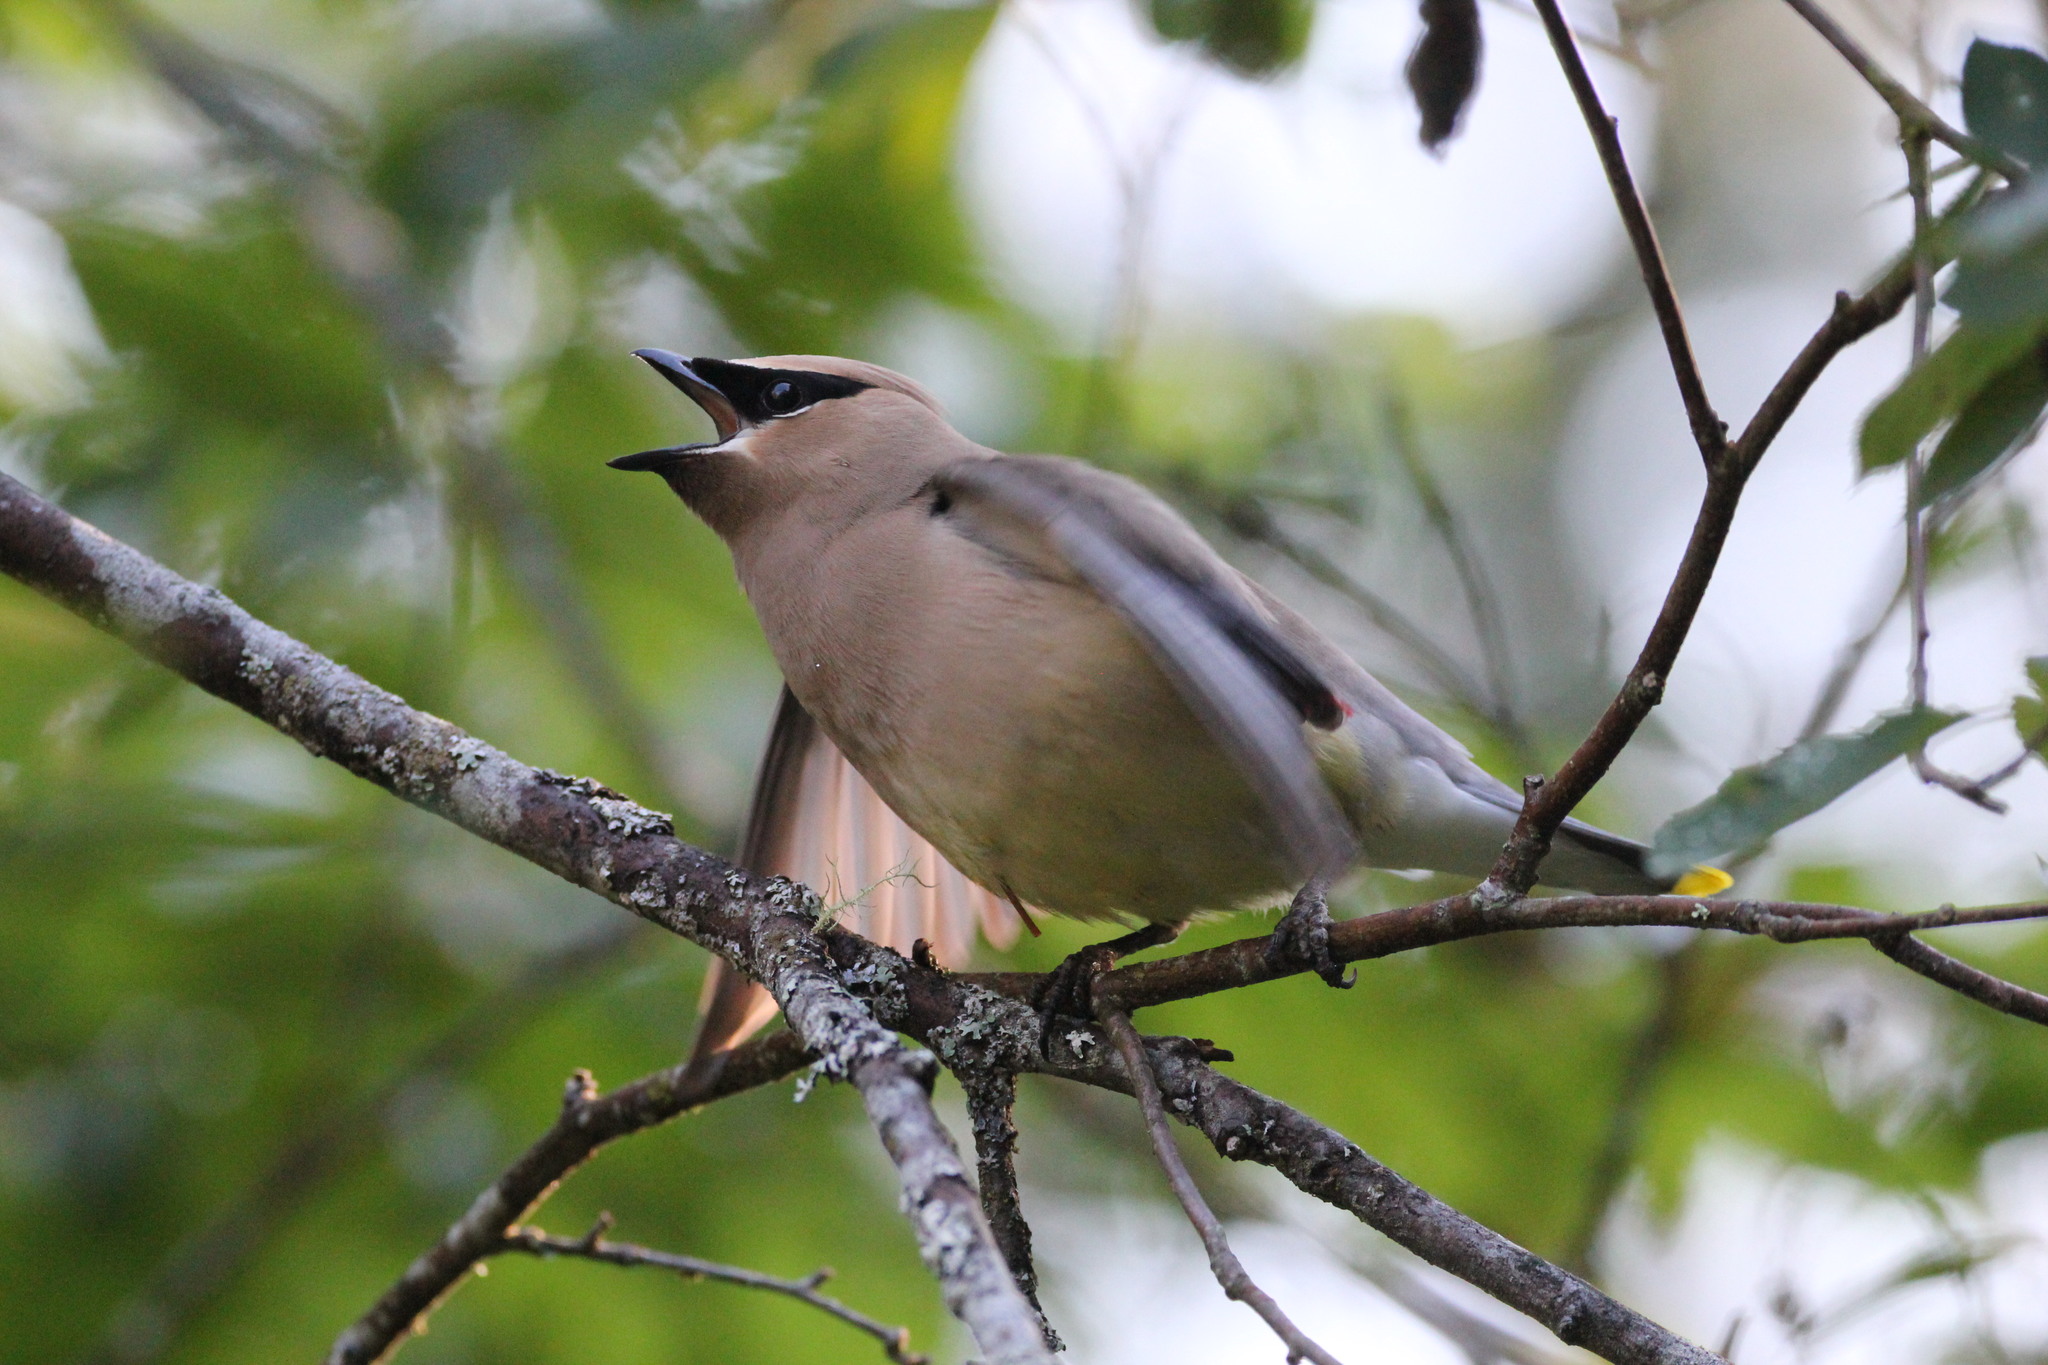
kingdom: Animalia
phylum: Chordata
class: Aves
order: Passeriformes
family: Bombycillidae
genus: Bombycilla
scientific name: Bombycilla cedrorum
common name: Cedar waxwing
